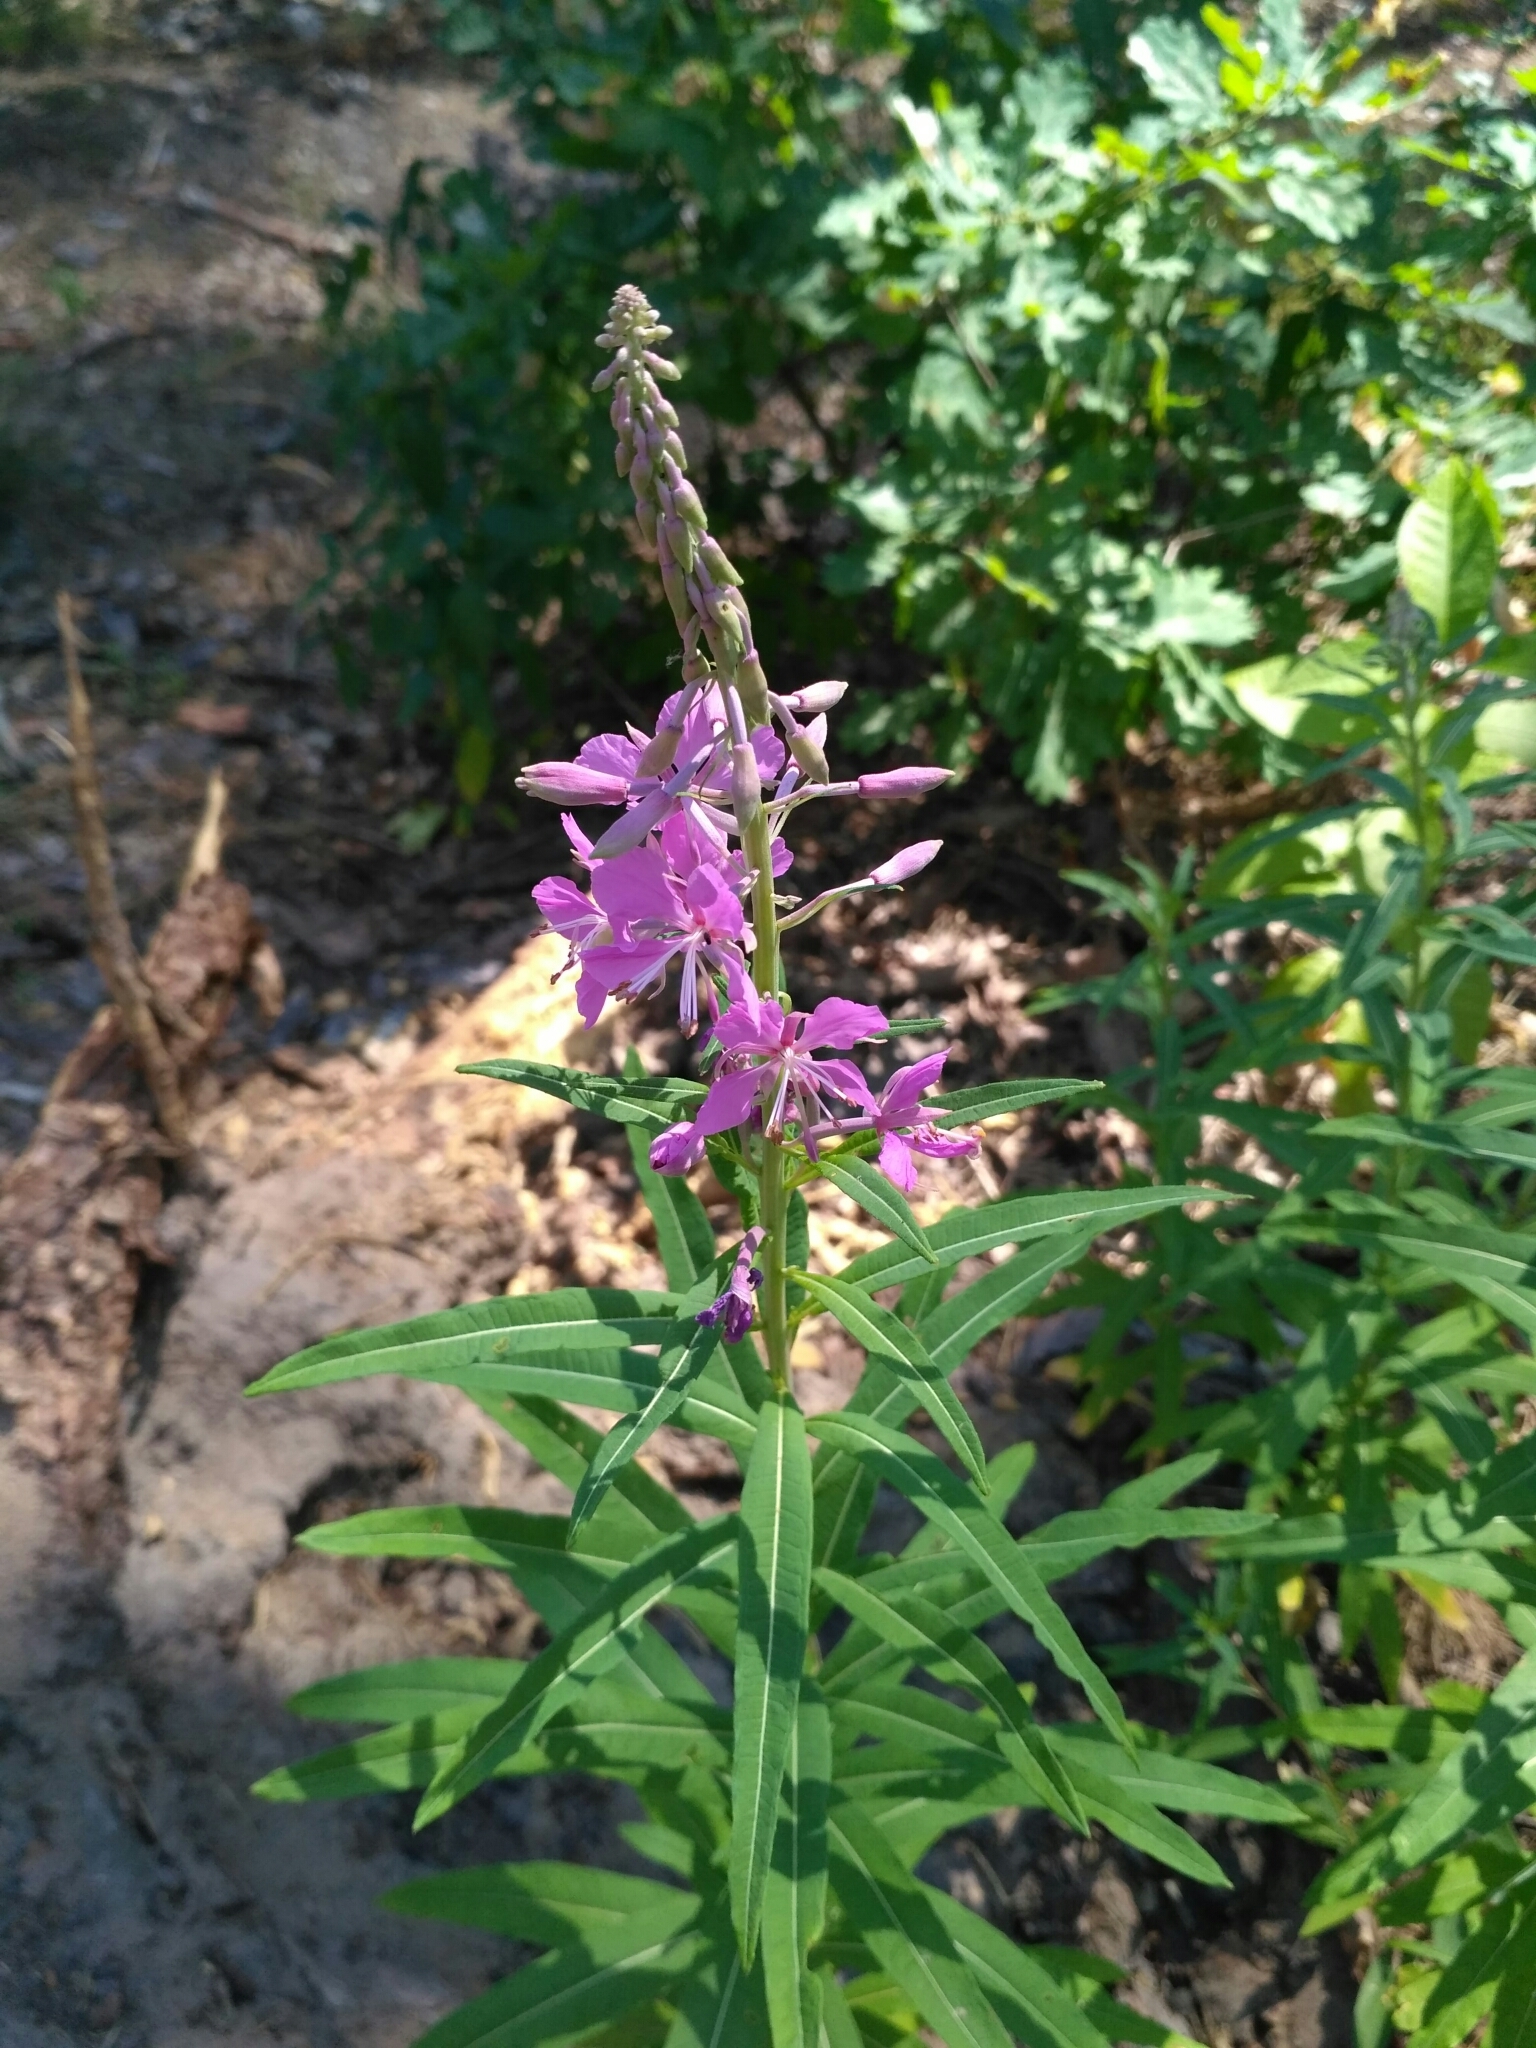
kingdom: Plantae
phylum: Tracheophyta
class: Magnoliopsida
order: Myrtales
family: Onagraceae
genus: Chamaenerion
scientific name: Chamaenerion angustifolium
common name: Fireweed
